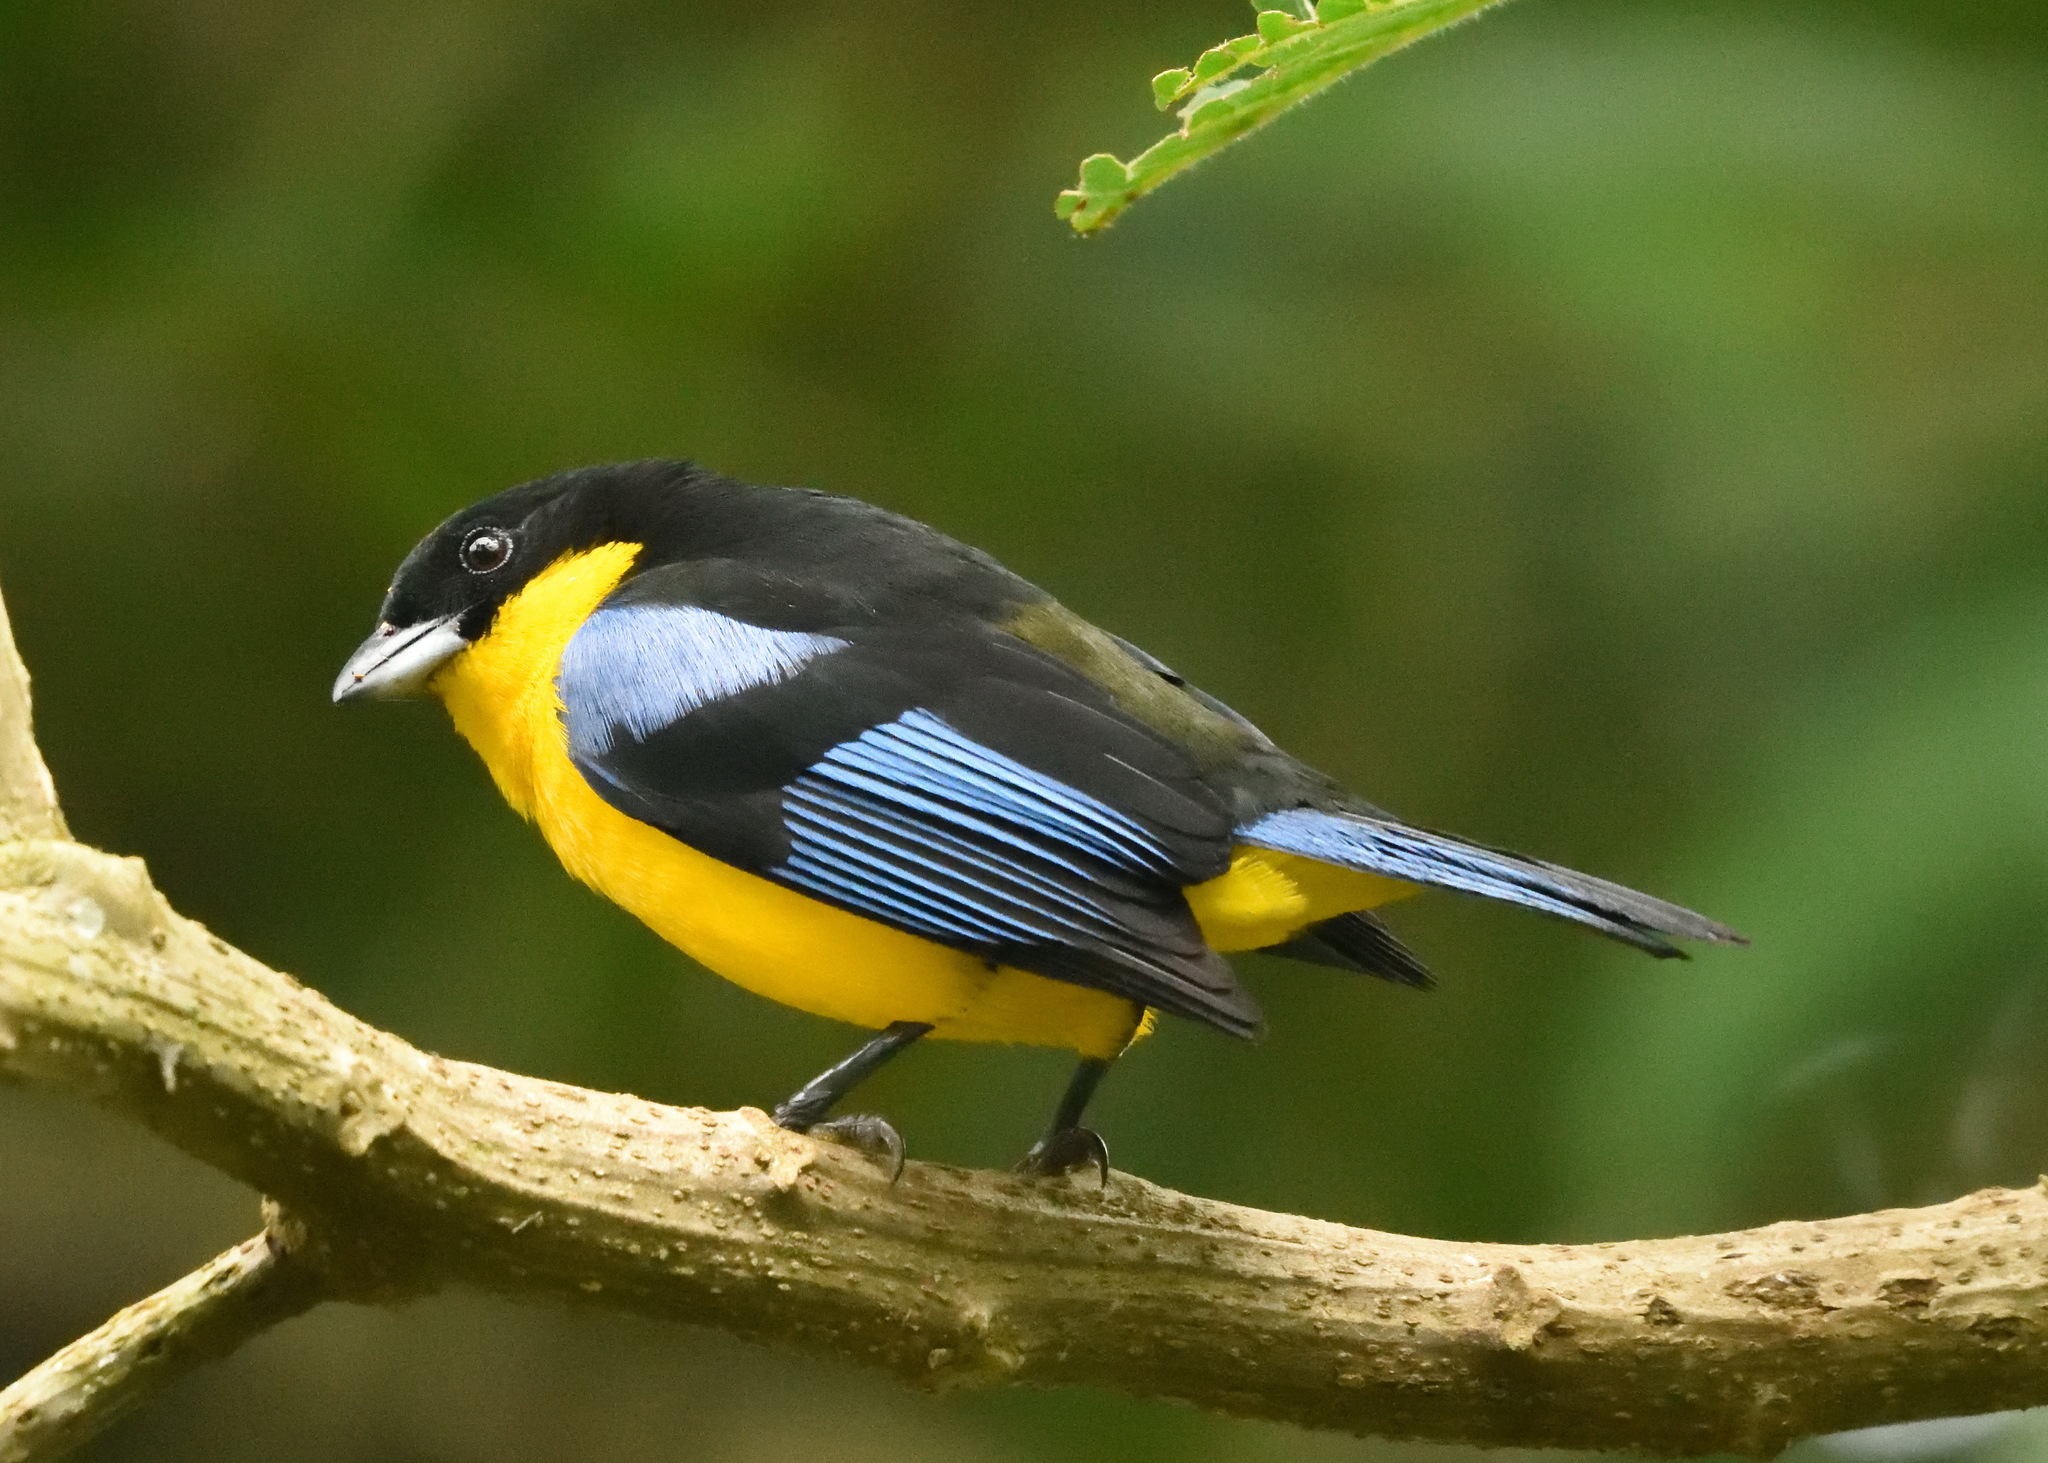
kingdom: Animalia
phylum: Chordata
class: Aves
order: Passeriformes
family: Thraupidae
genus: Anisognathus
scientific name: Anisognathus somptuosus
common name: Blue-winged mountain-tanager
